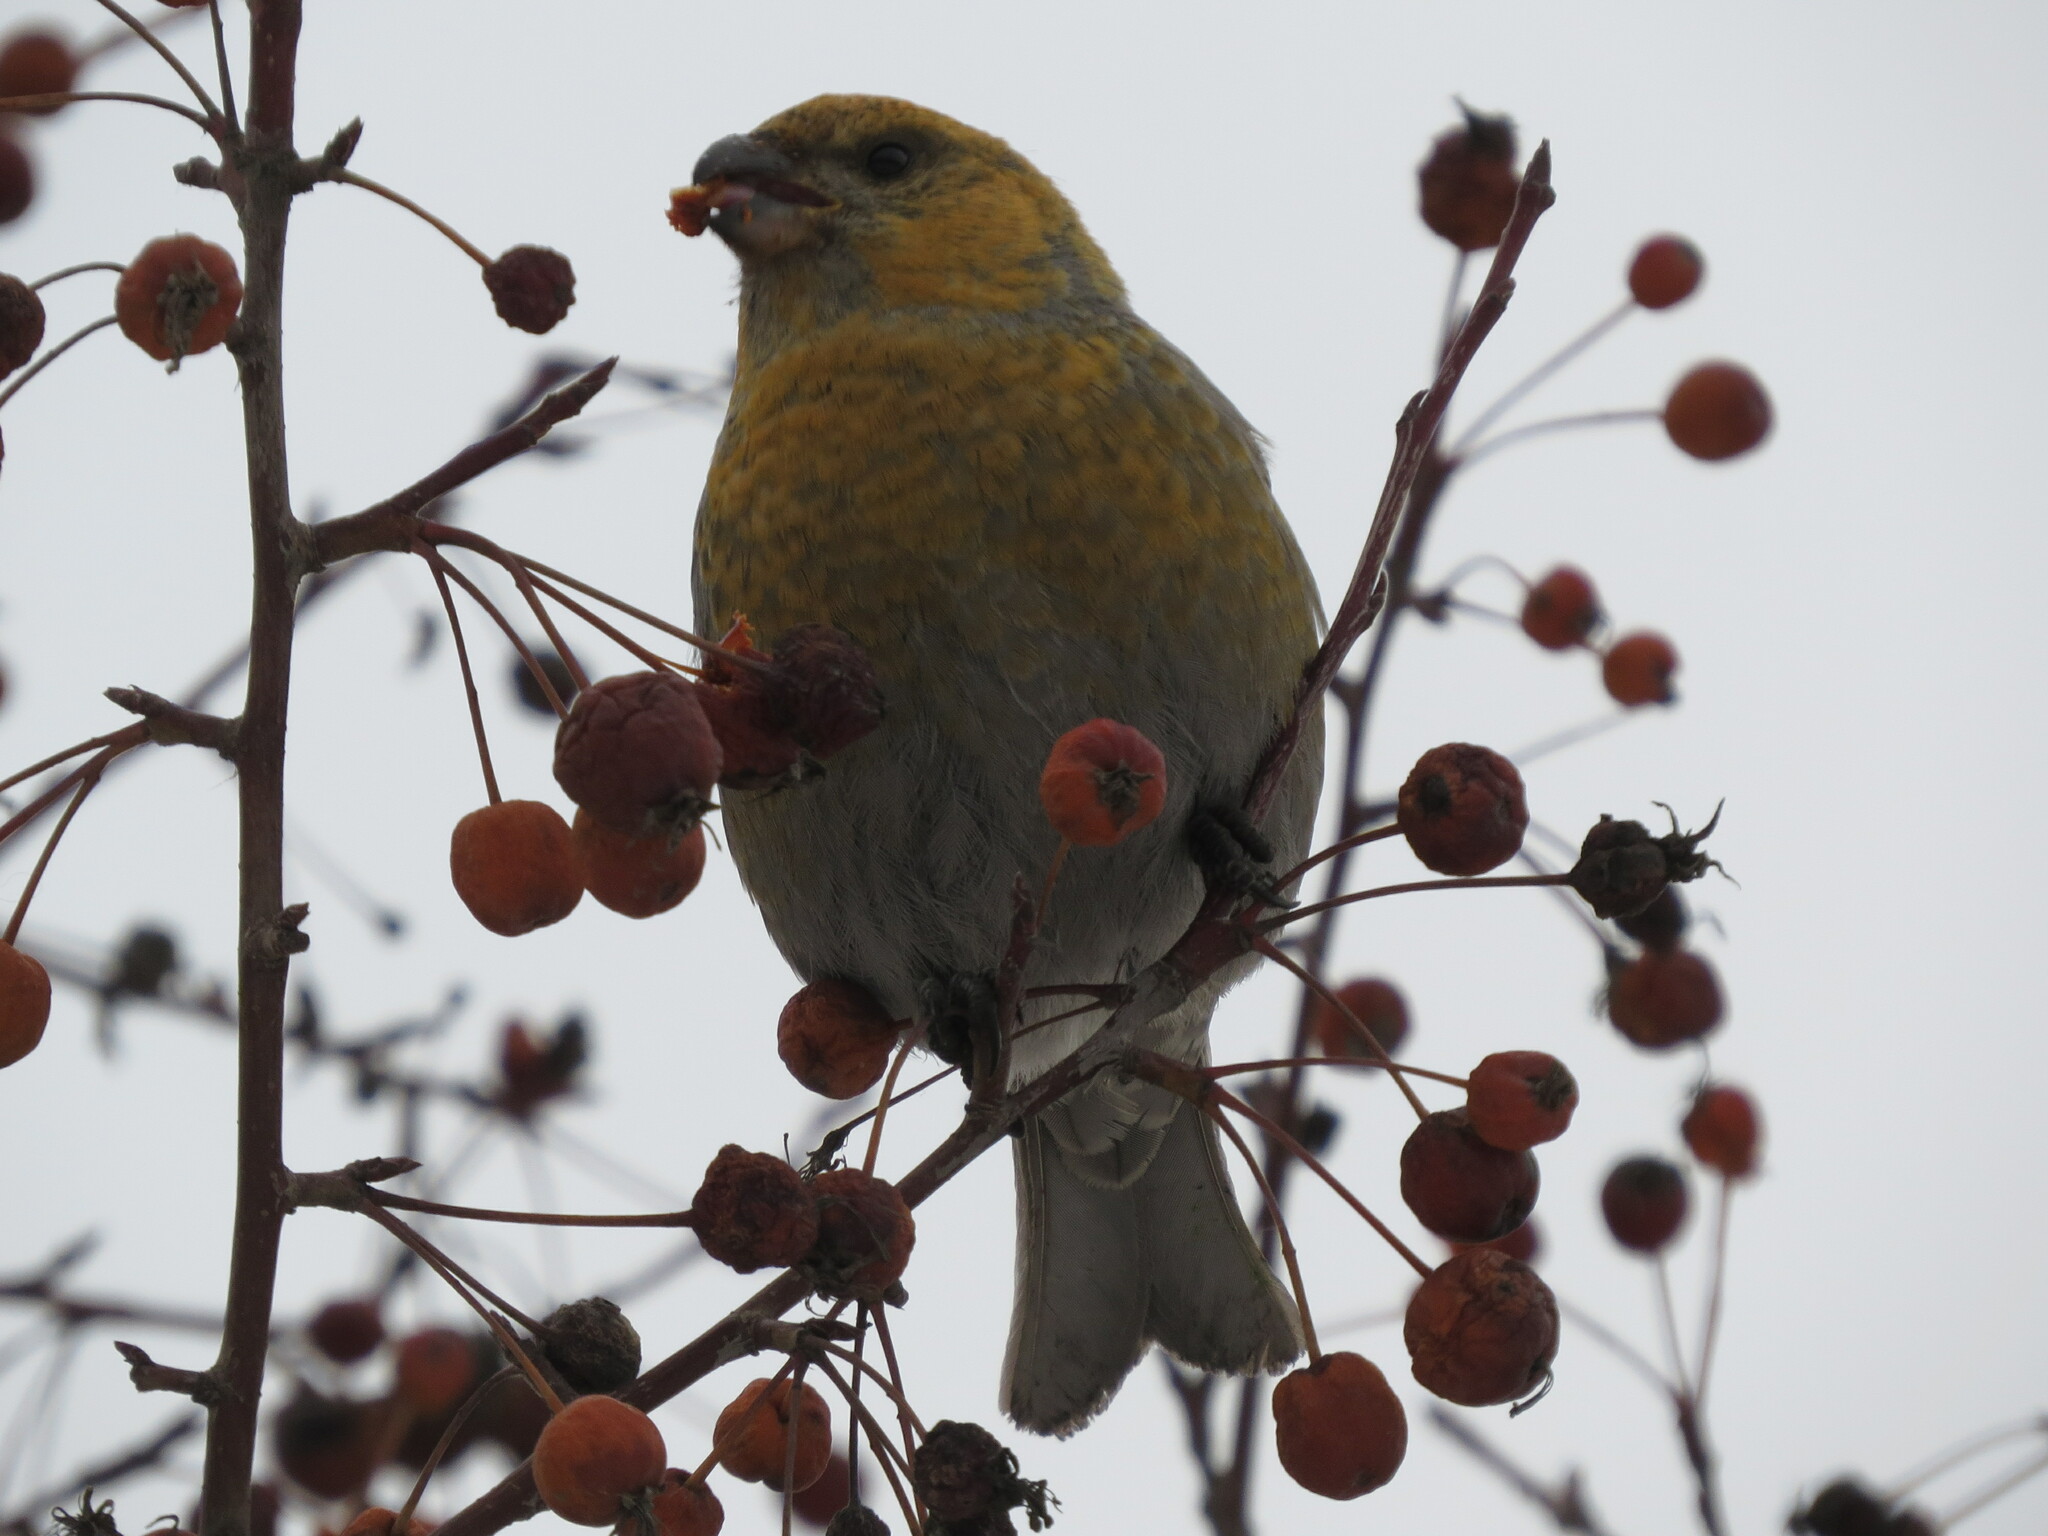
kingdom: Animalia
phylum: Chordata
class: Aves
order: Passeriformes
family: Fringillidae
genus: Pinicola
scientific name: Pinicola enucleator
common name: Pine grosbeak
